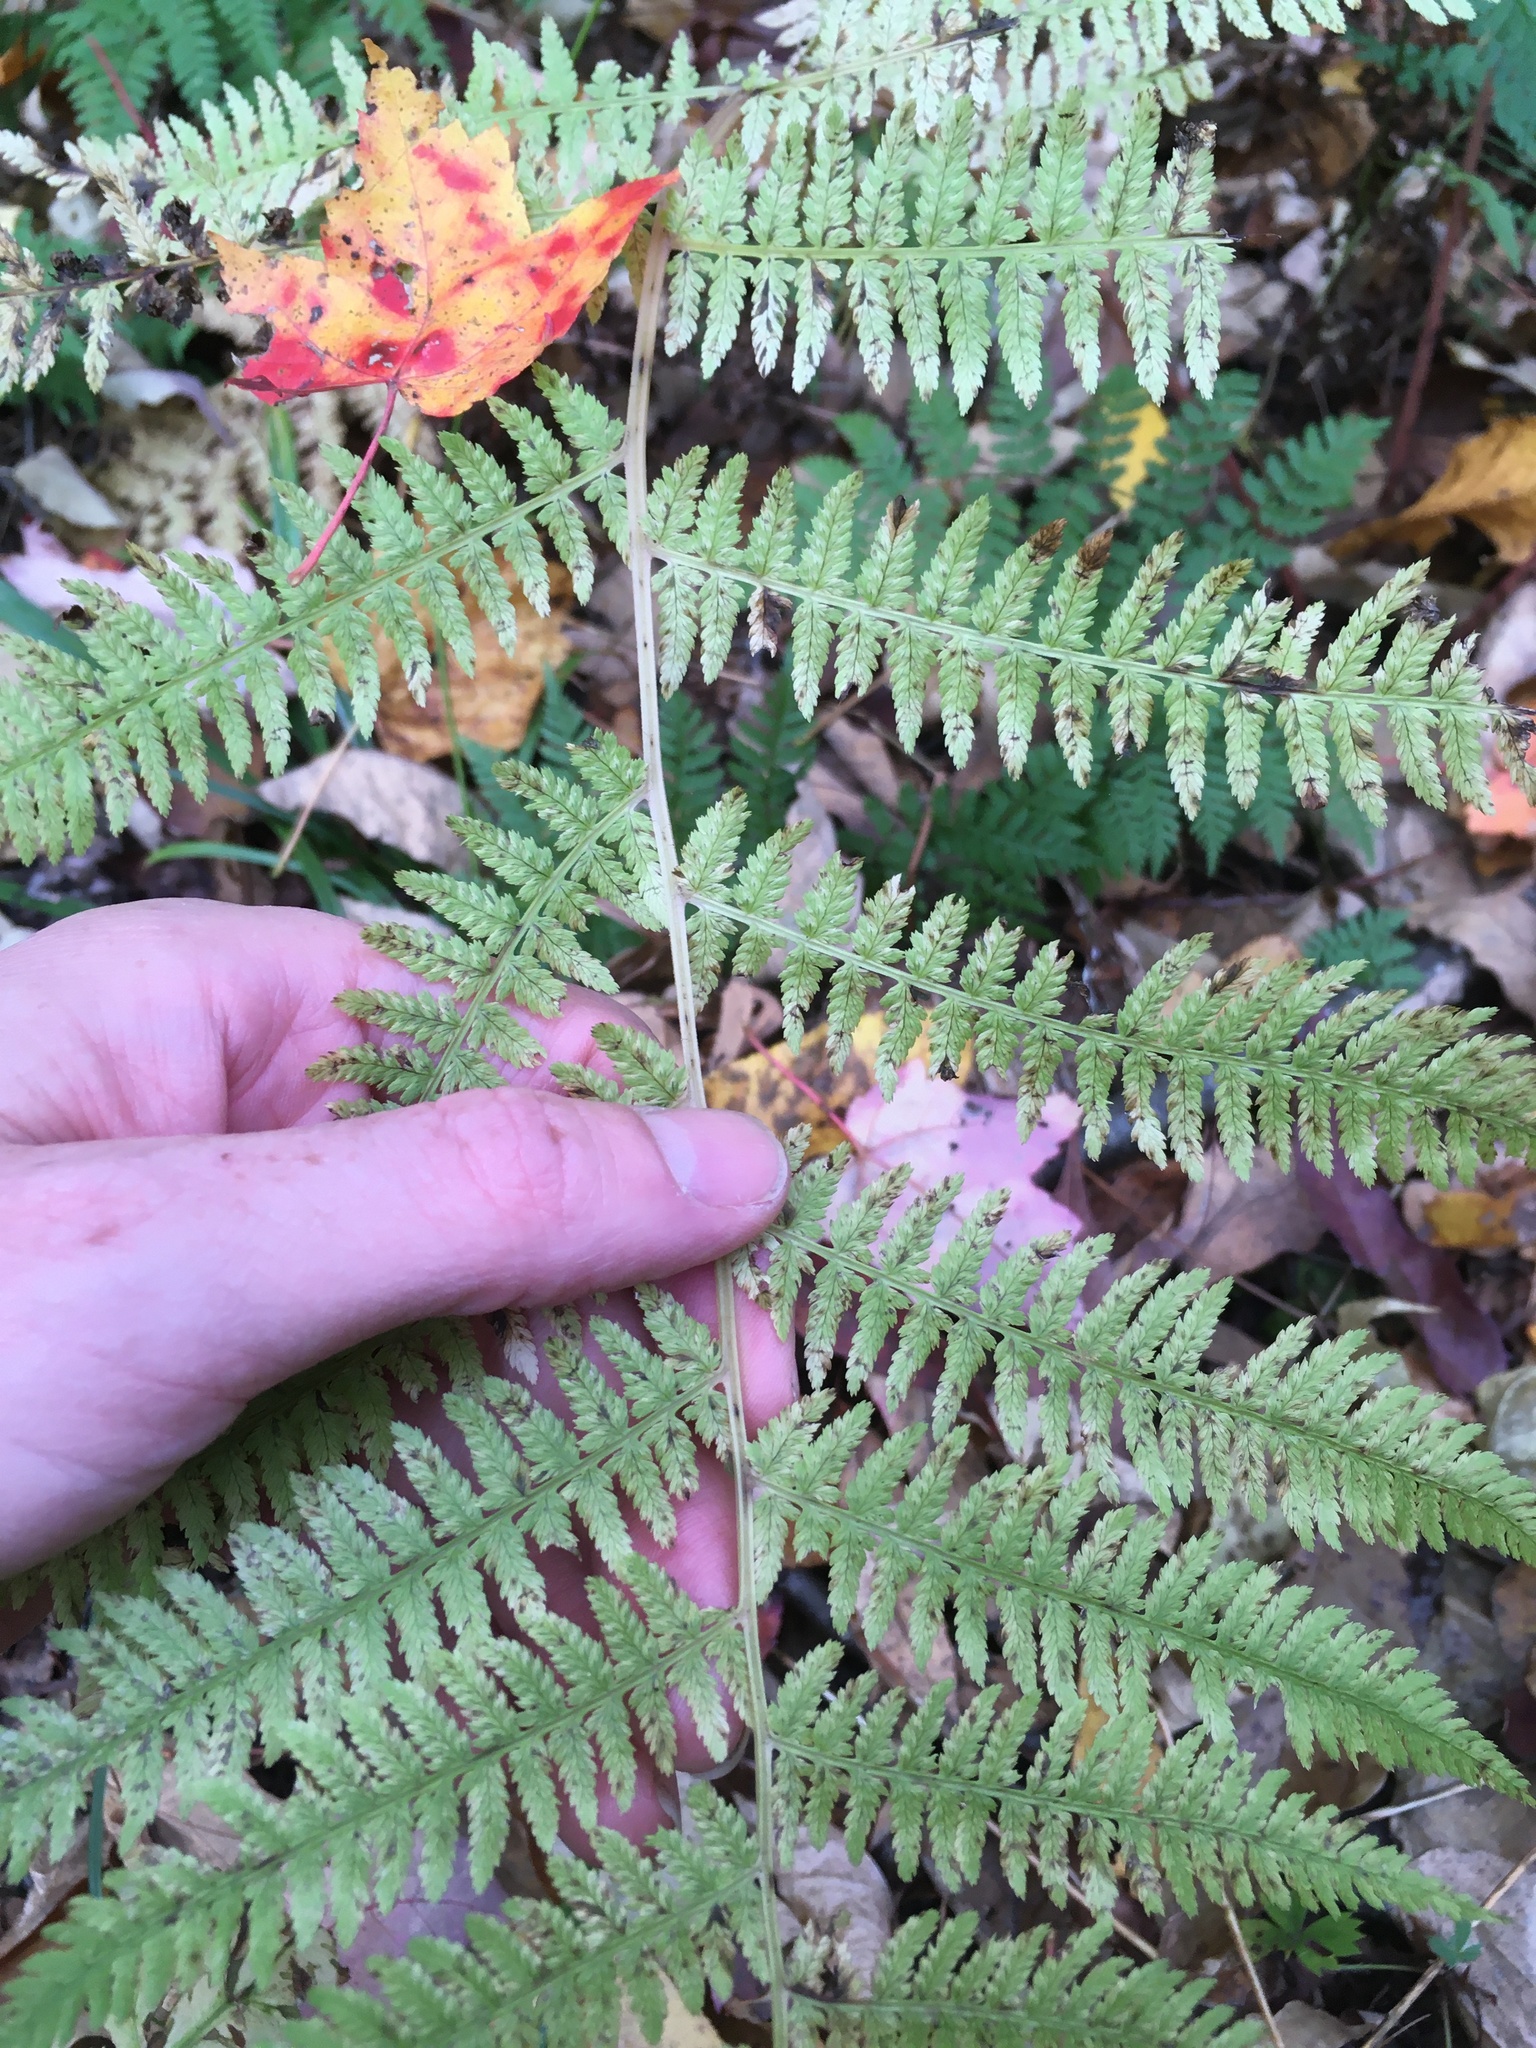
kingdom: Plantae
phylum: Tracheophyta
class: Polypodiopsida
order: Polypodiales
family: Athyriaceae
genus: Athyrium
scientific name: Athyrium angustum
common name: Northern lady fern
